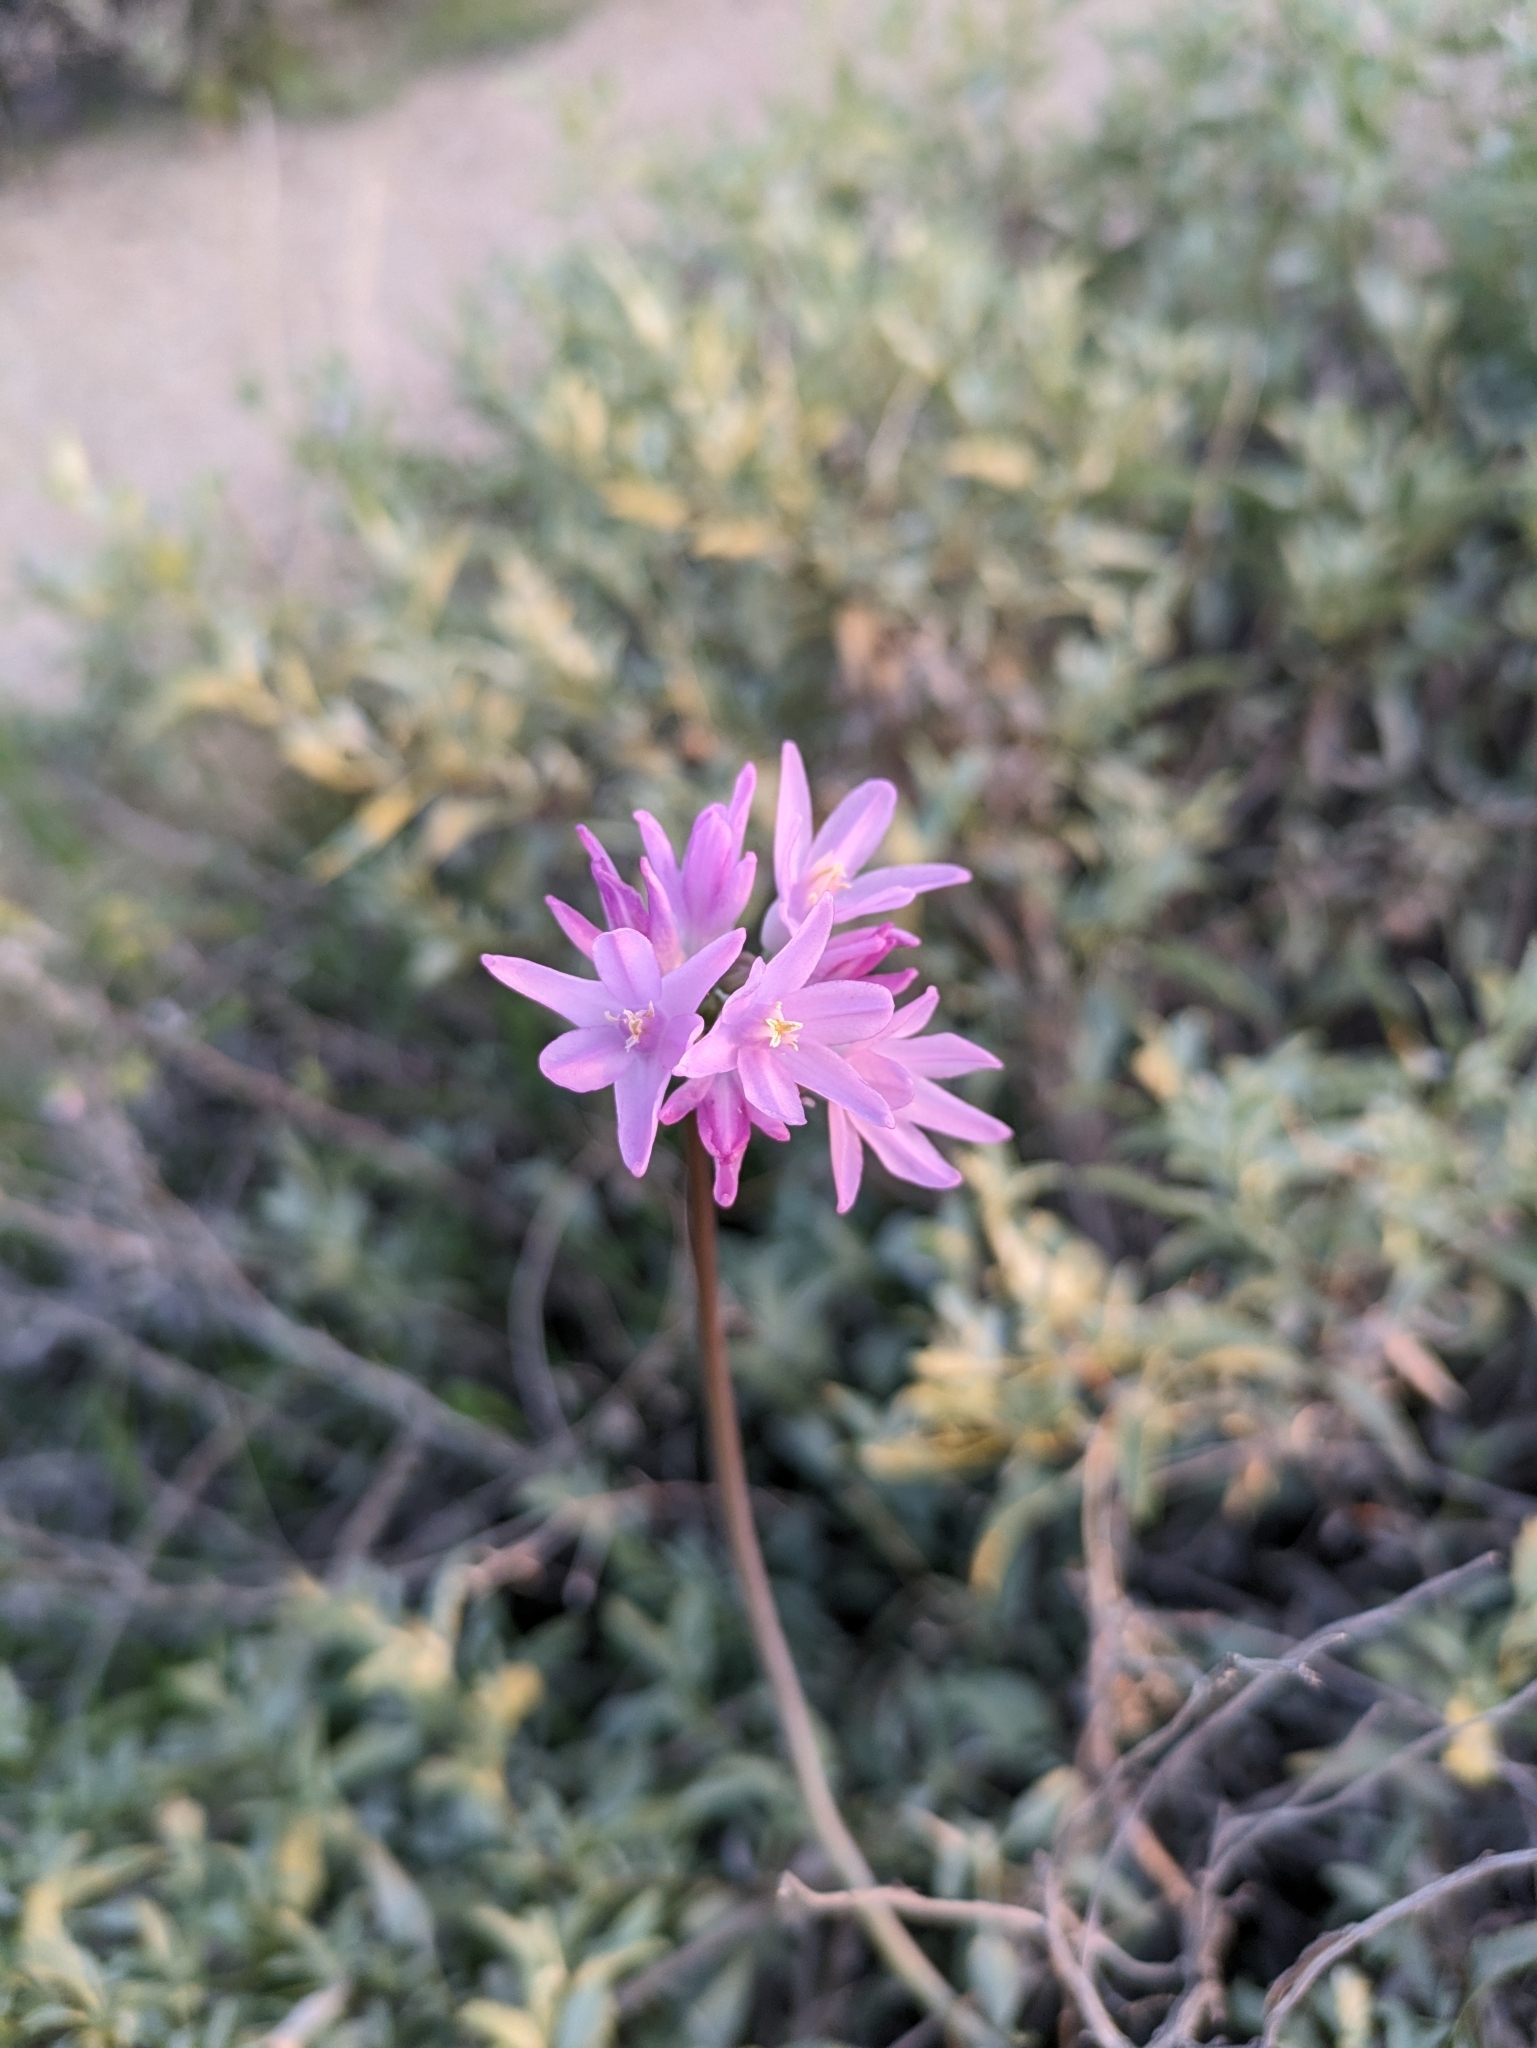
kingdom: Plantae
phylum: Tracheophyta
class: Liliopsida
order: Asparagales
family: Asparagaceae
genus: Dipterostemon
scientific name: Dipterostemon capitatus
